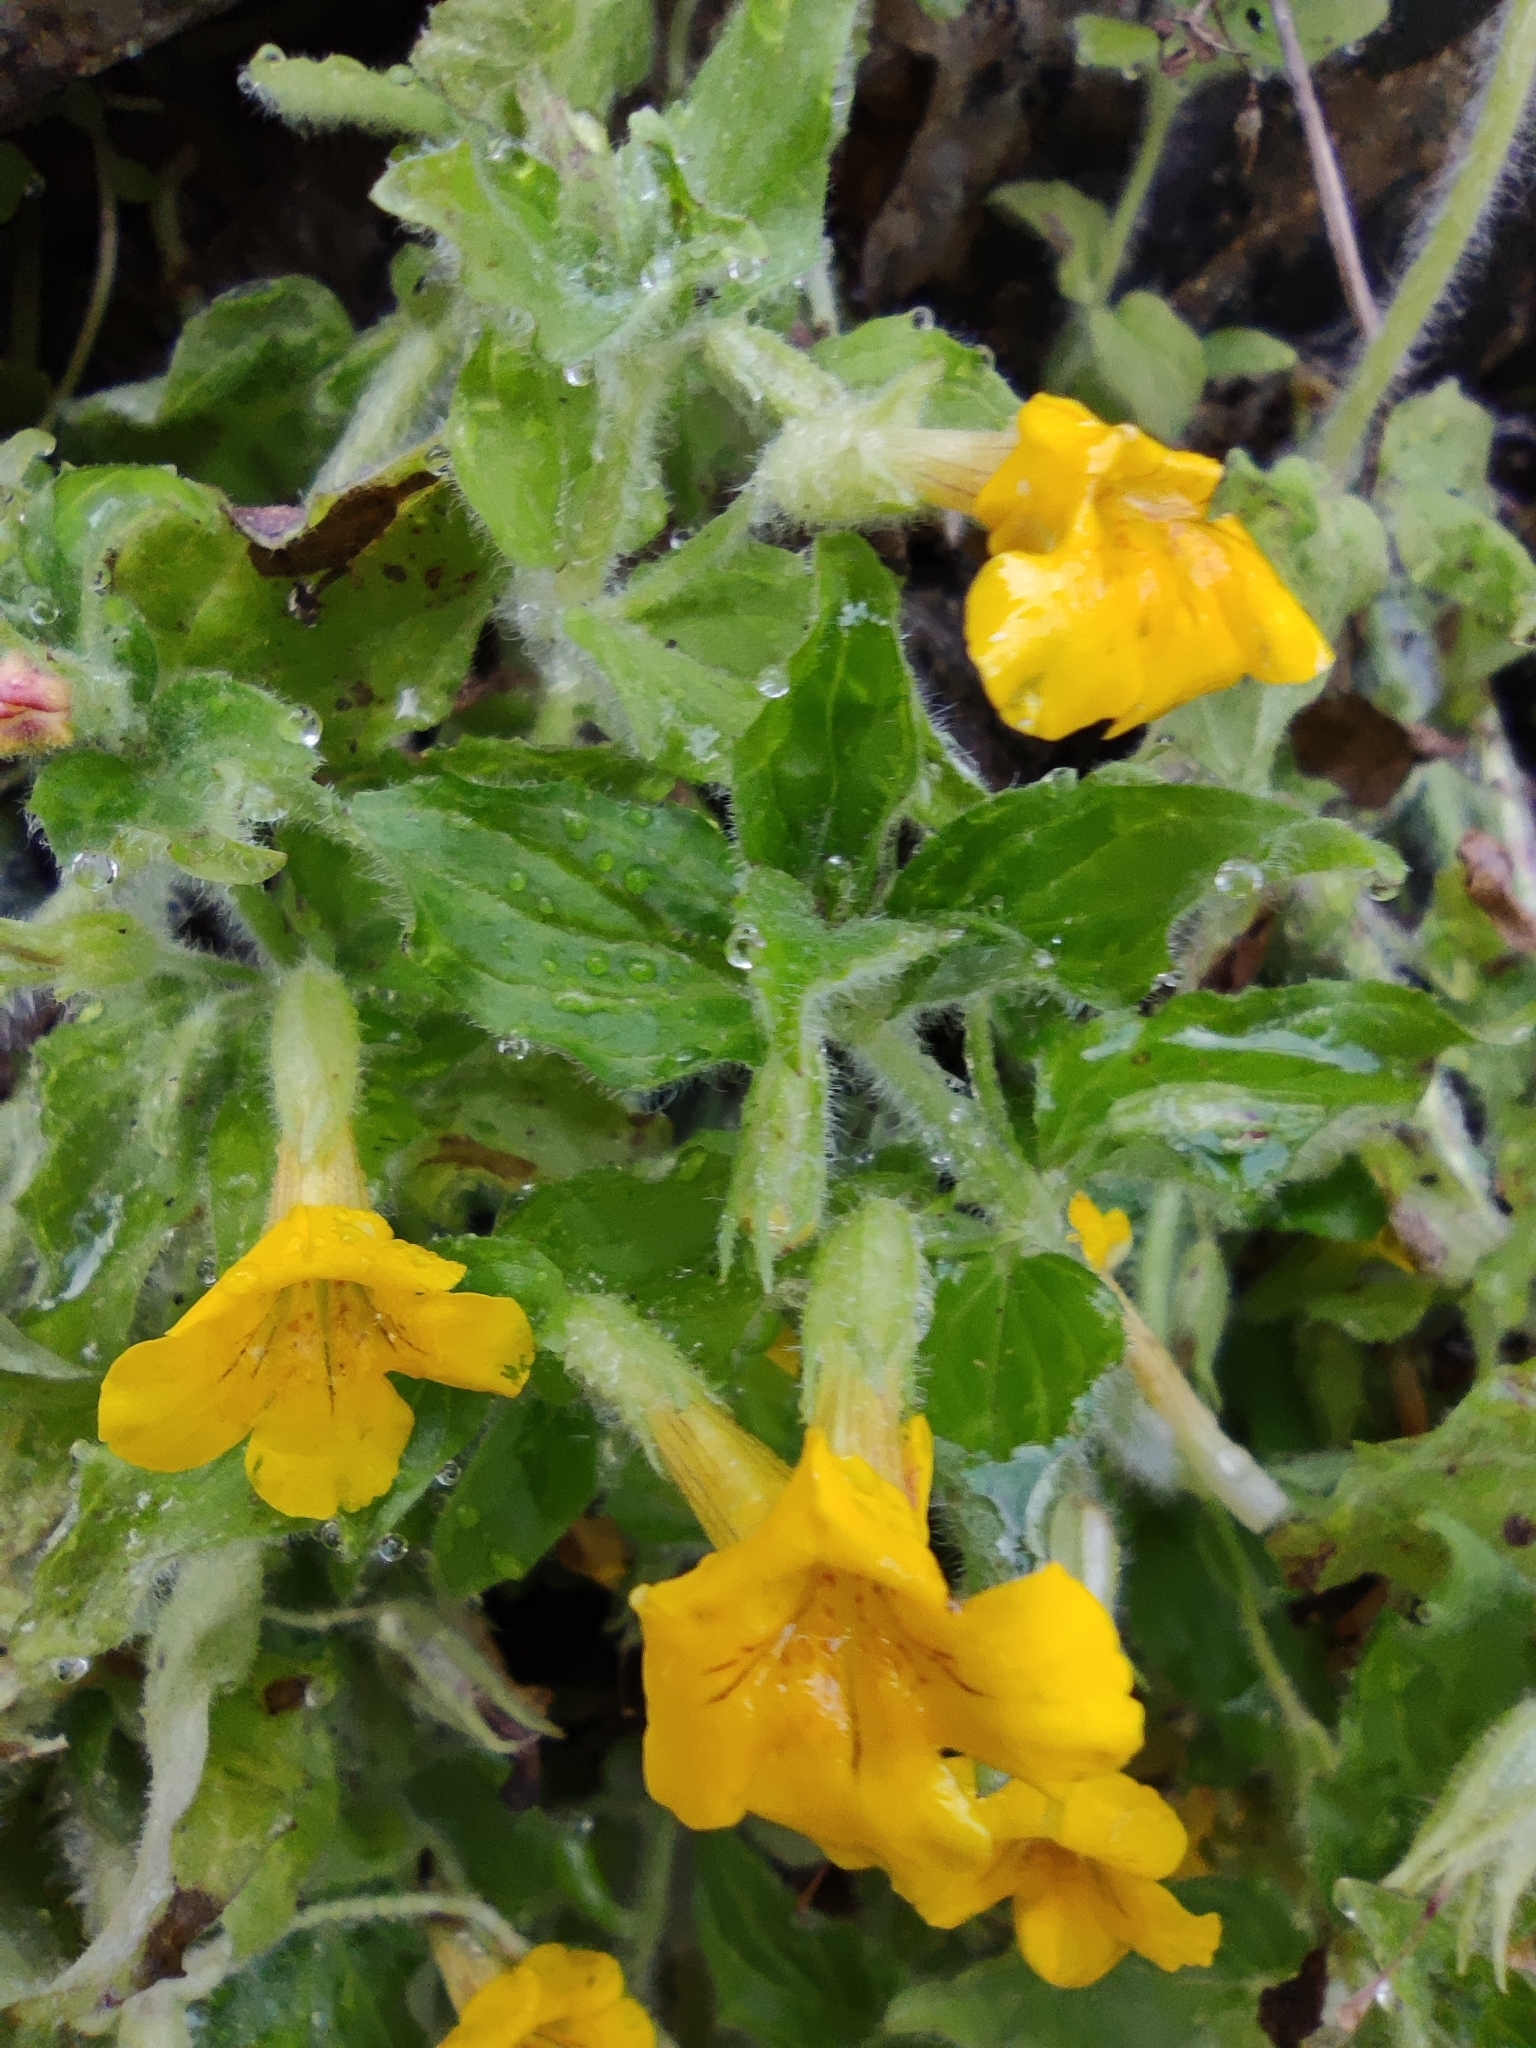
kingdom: Plantae
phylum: Tracheophyta
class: Magnoliopsida
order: Lamiales
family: Phrymaceae
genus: Erythranthe
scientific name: Erythranthe moschata
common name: Muskflower
